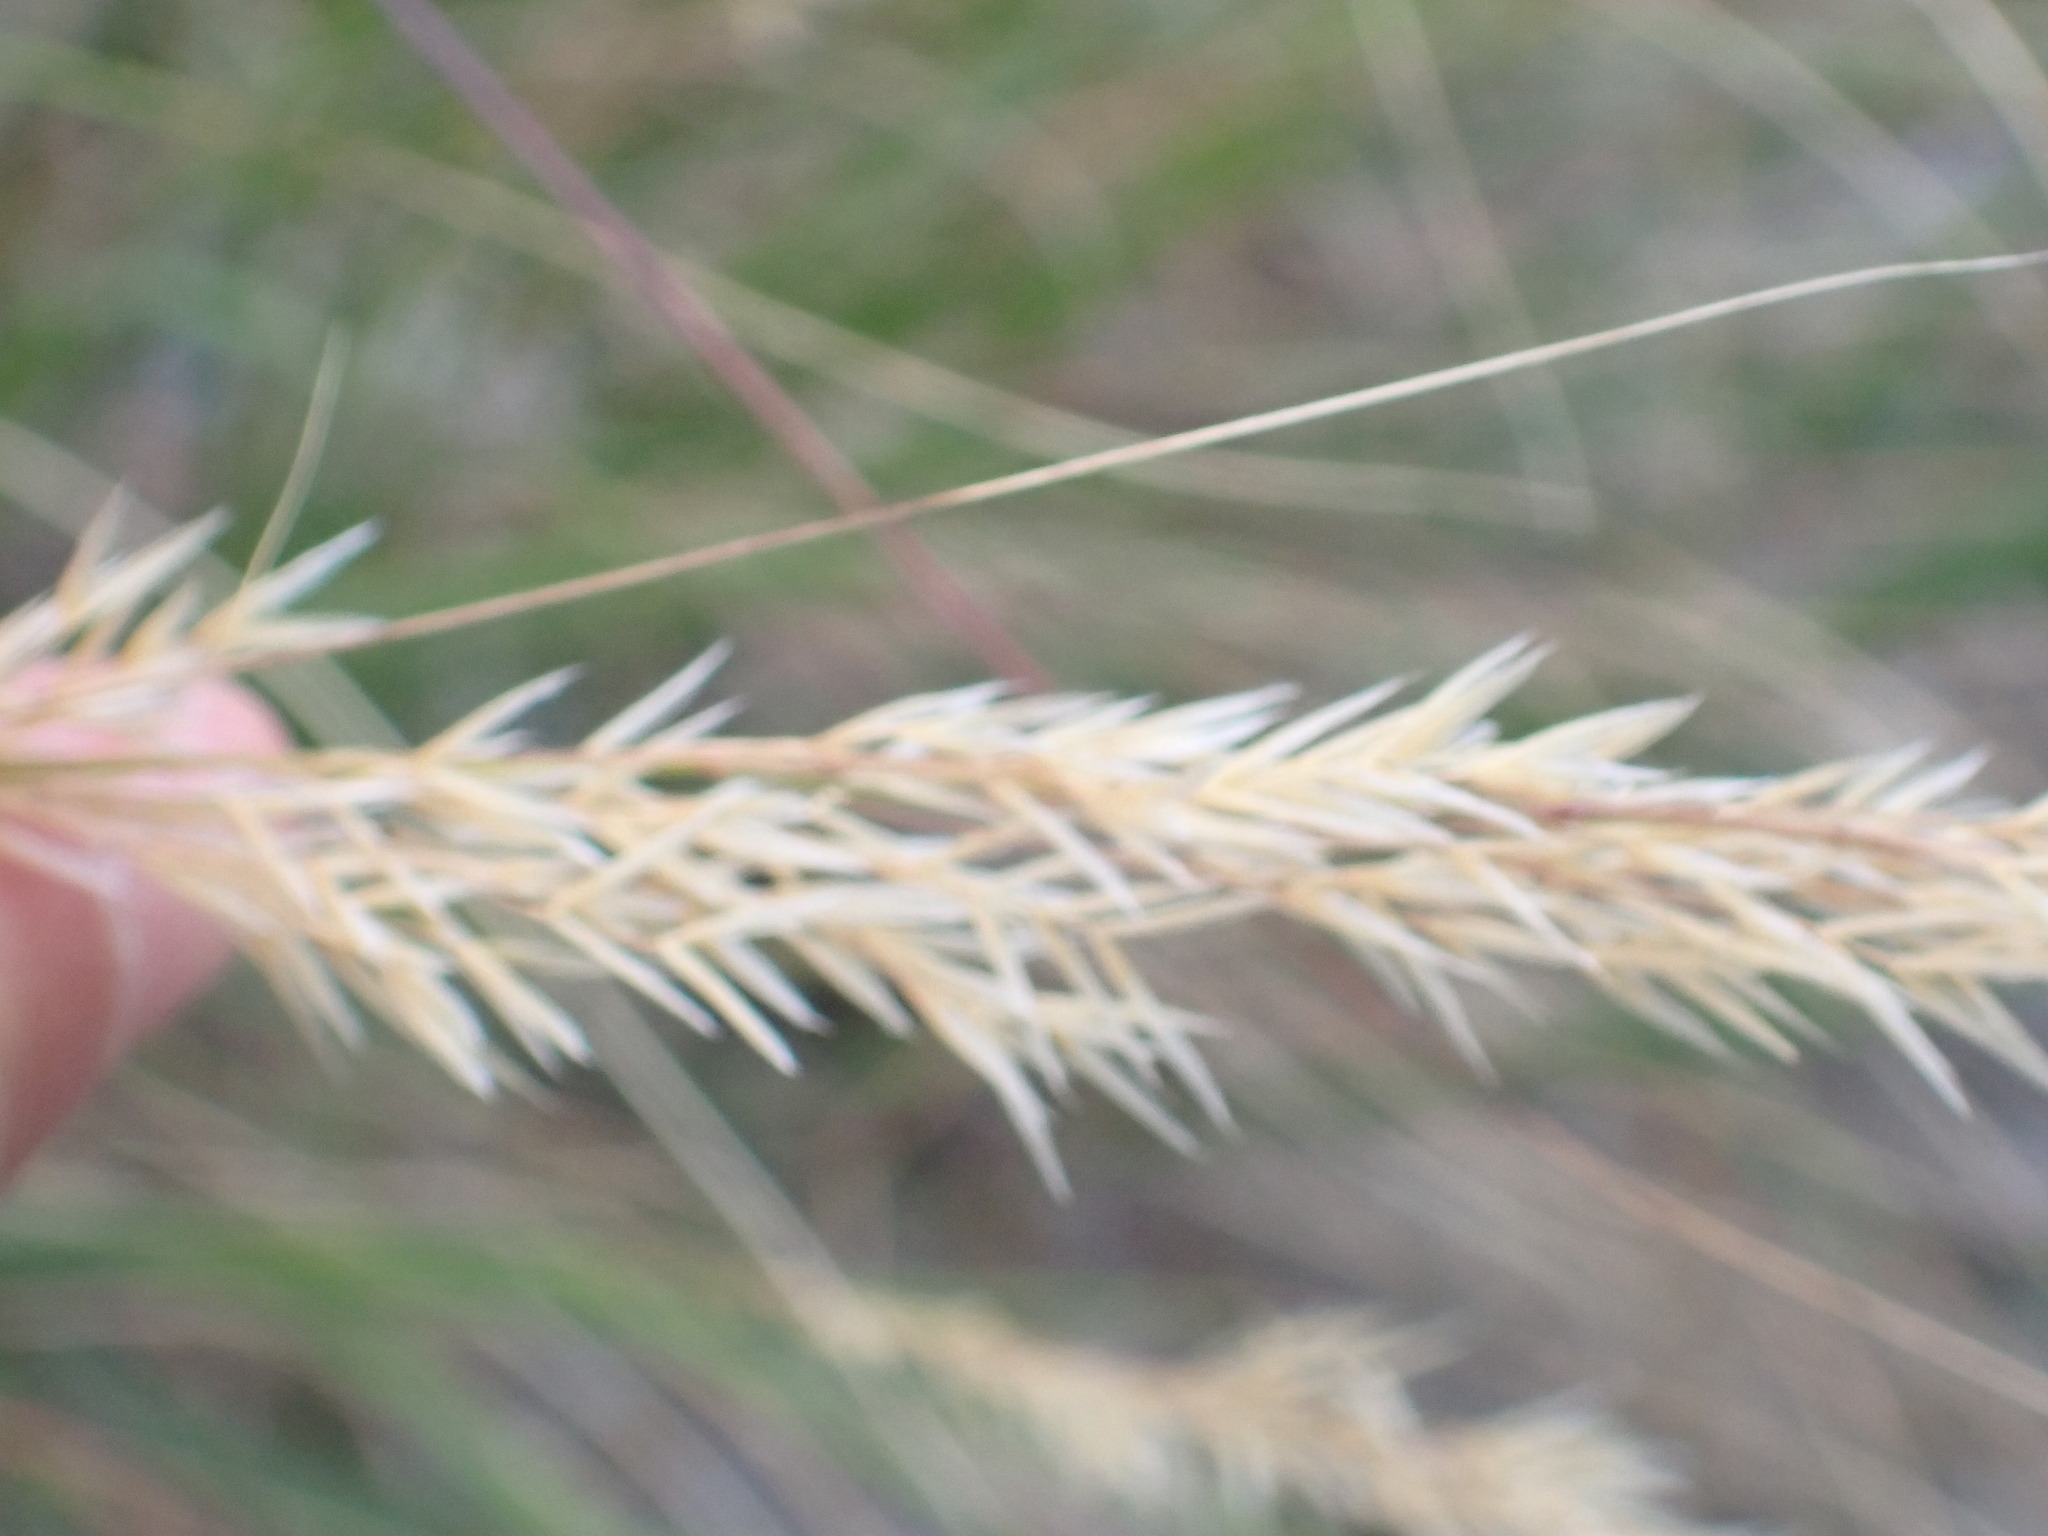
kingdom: Plantae
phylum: Tracheophyta
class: Liliopsida
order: Poales
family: Poaceae
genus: Achnatherum
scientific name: Achnatherum calamagrostis
